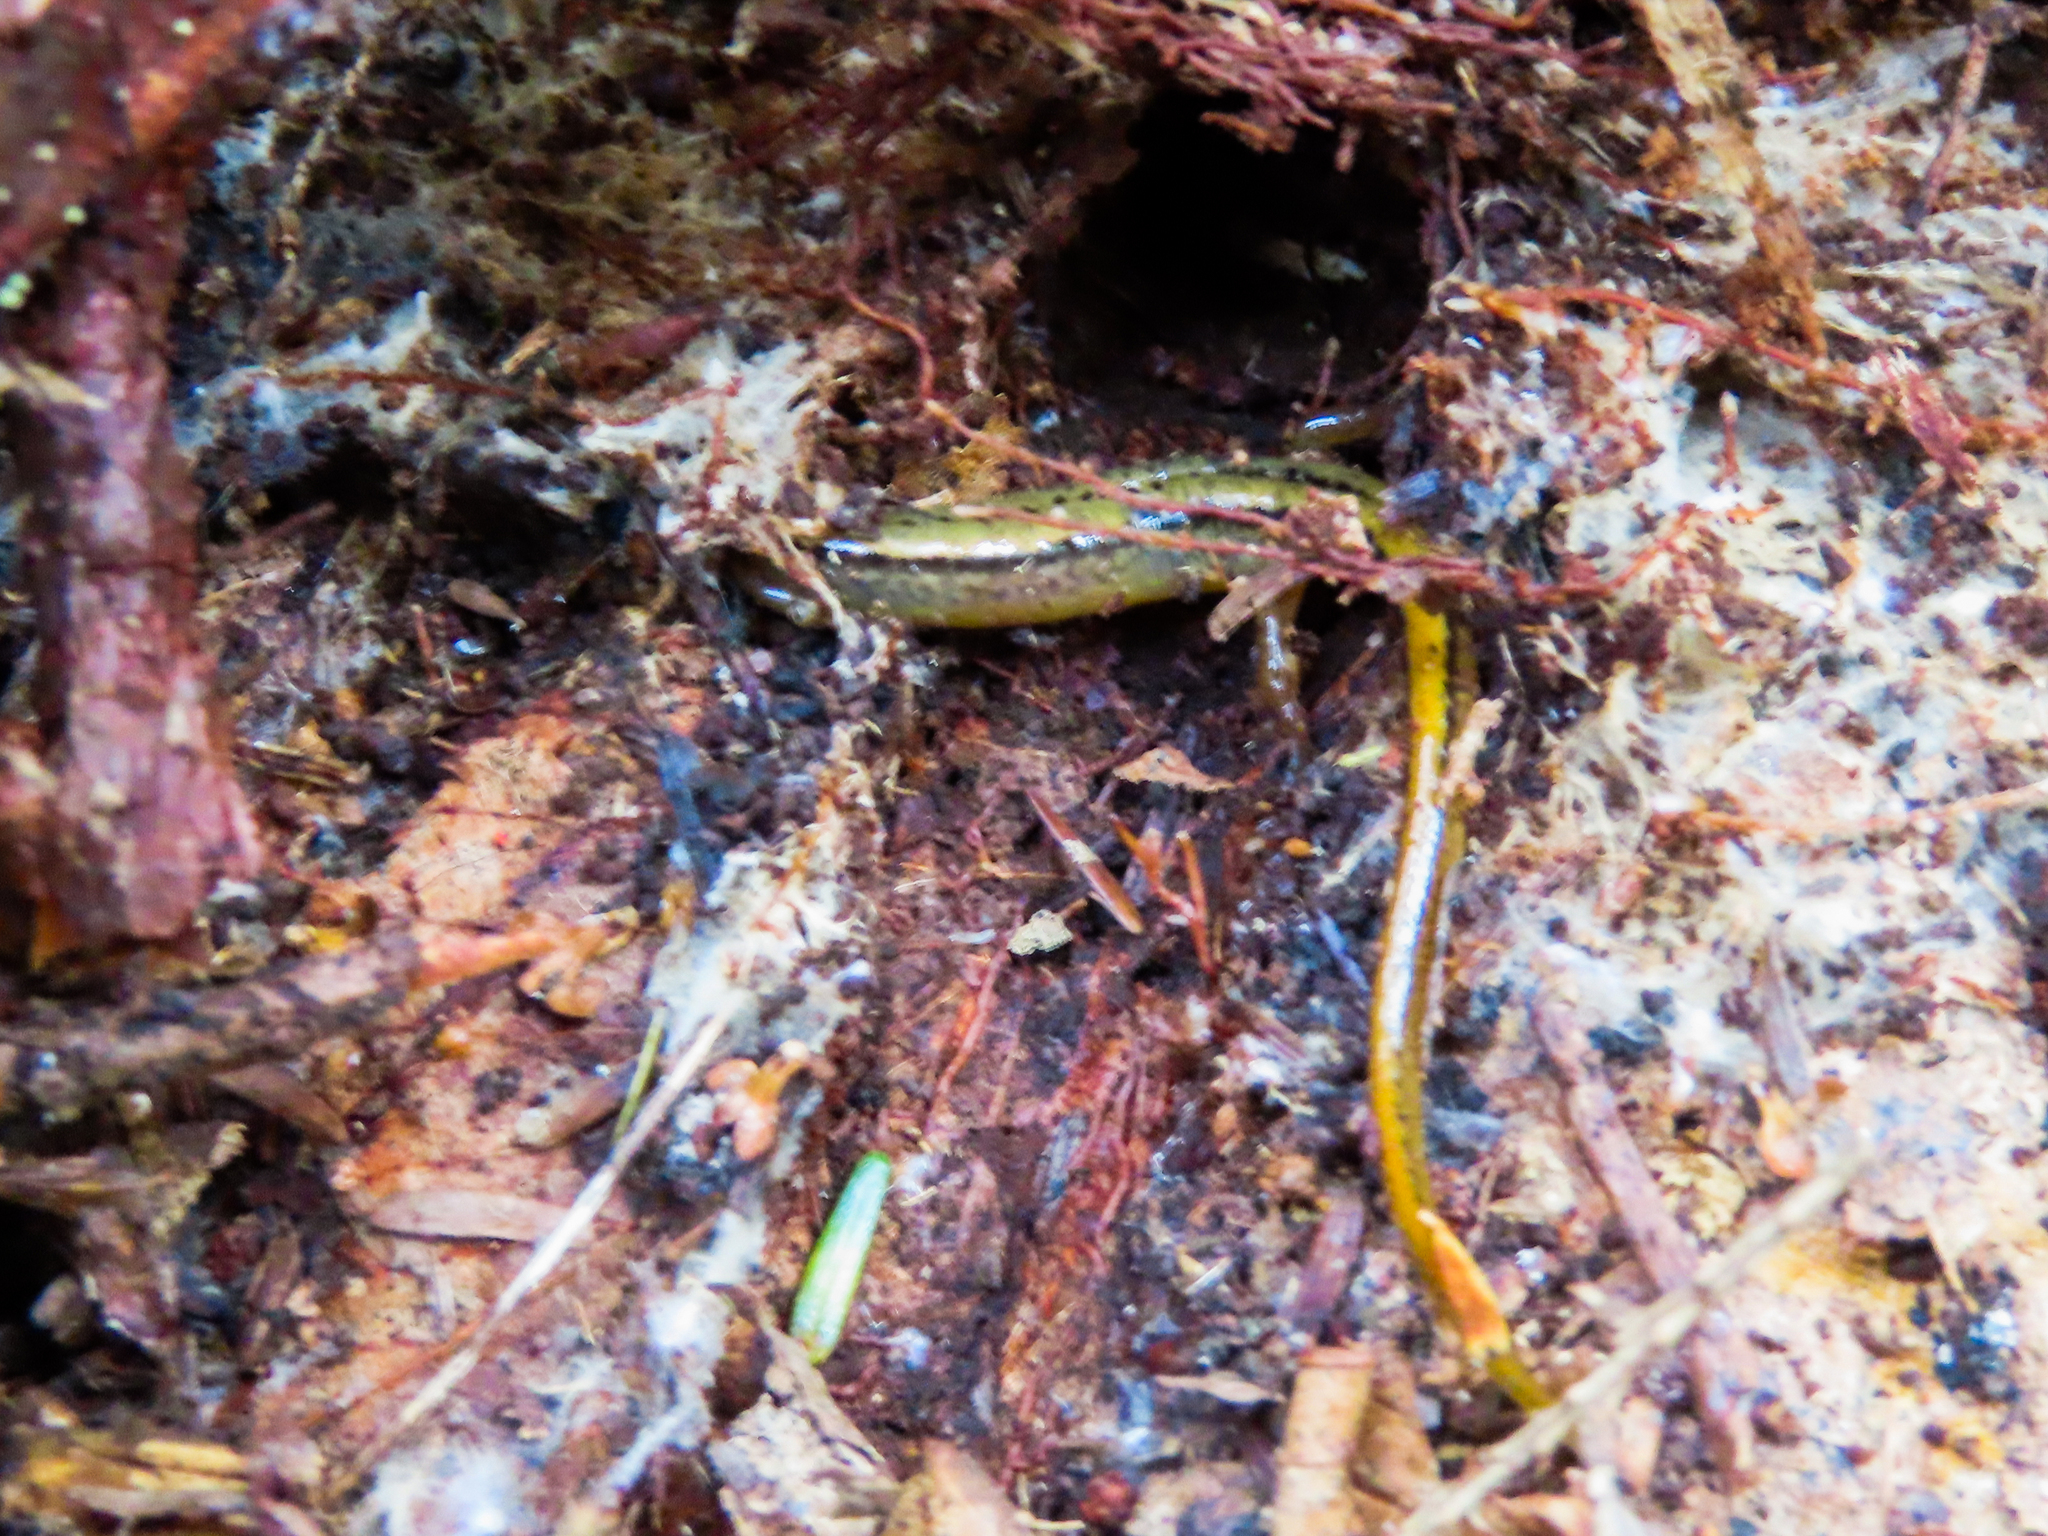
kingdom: Animalia
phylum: Chordata
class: Amphibia
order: Caudata
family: Plethodontidae
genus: Eurycea
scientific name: Eurycea bislineata
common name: Northern two-lined salamander
